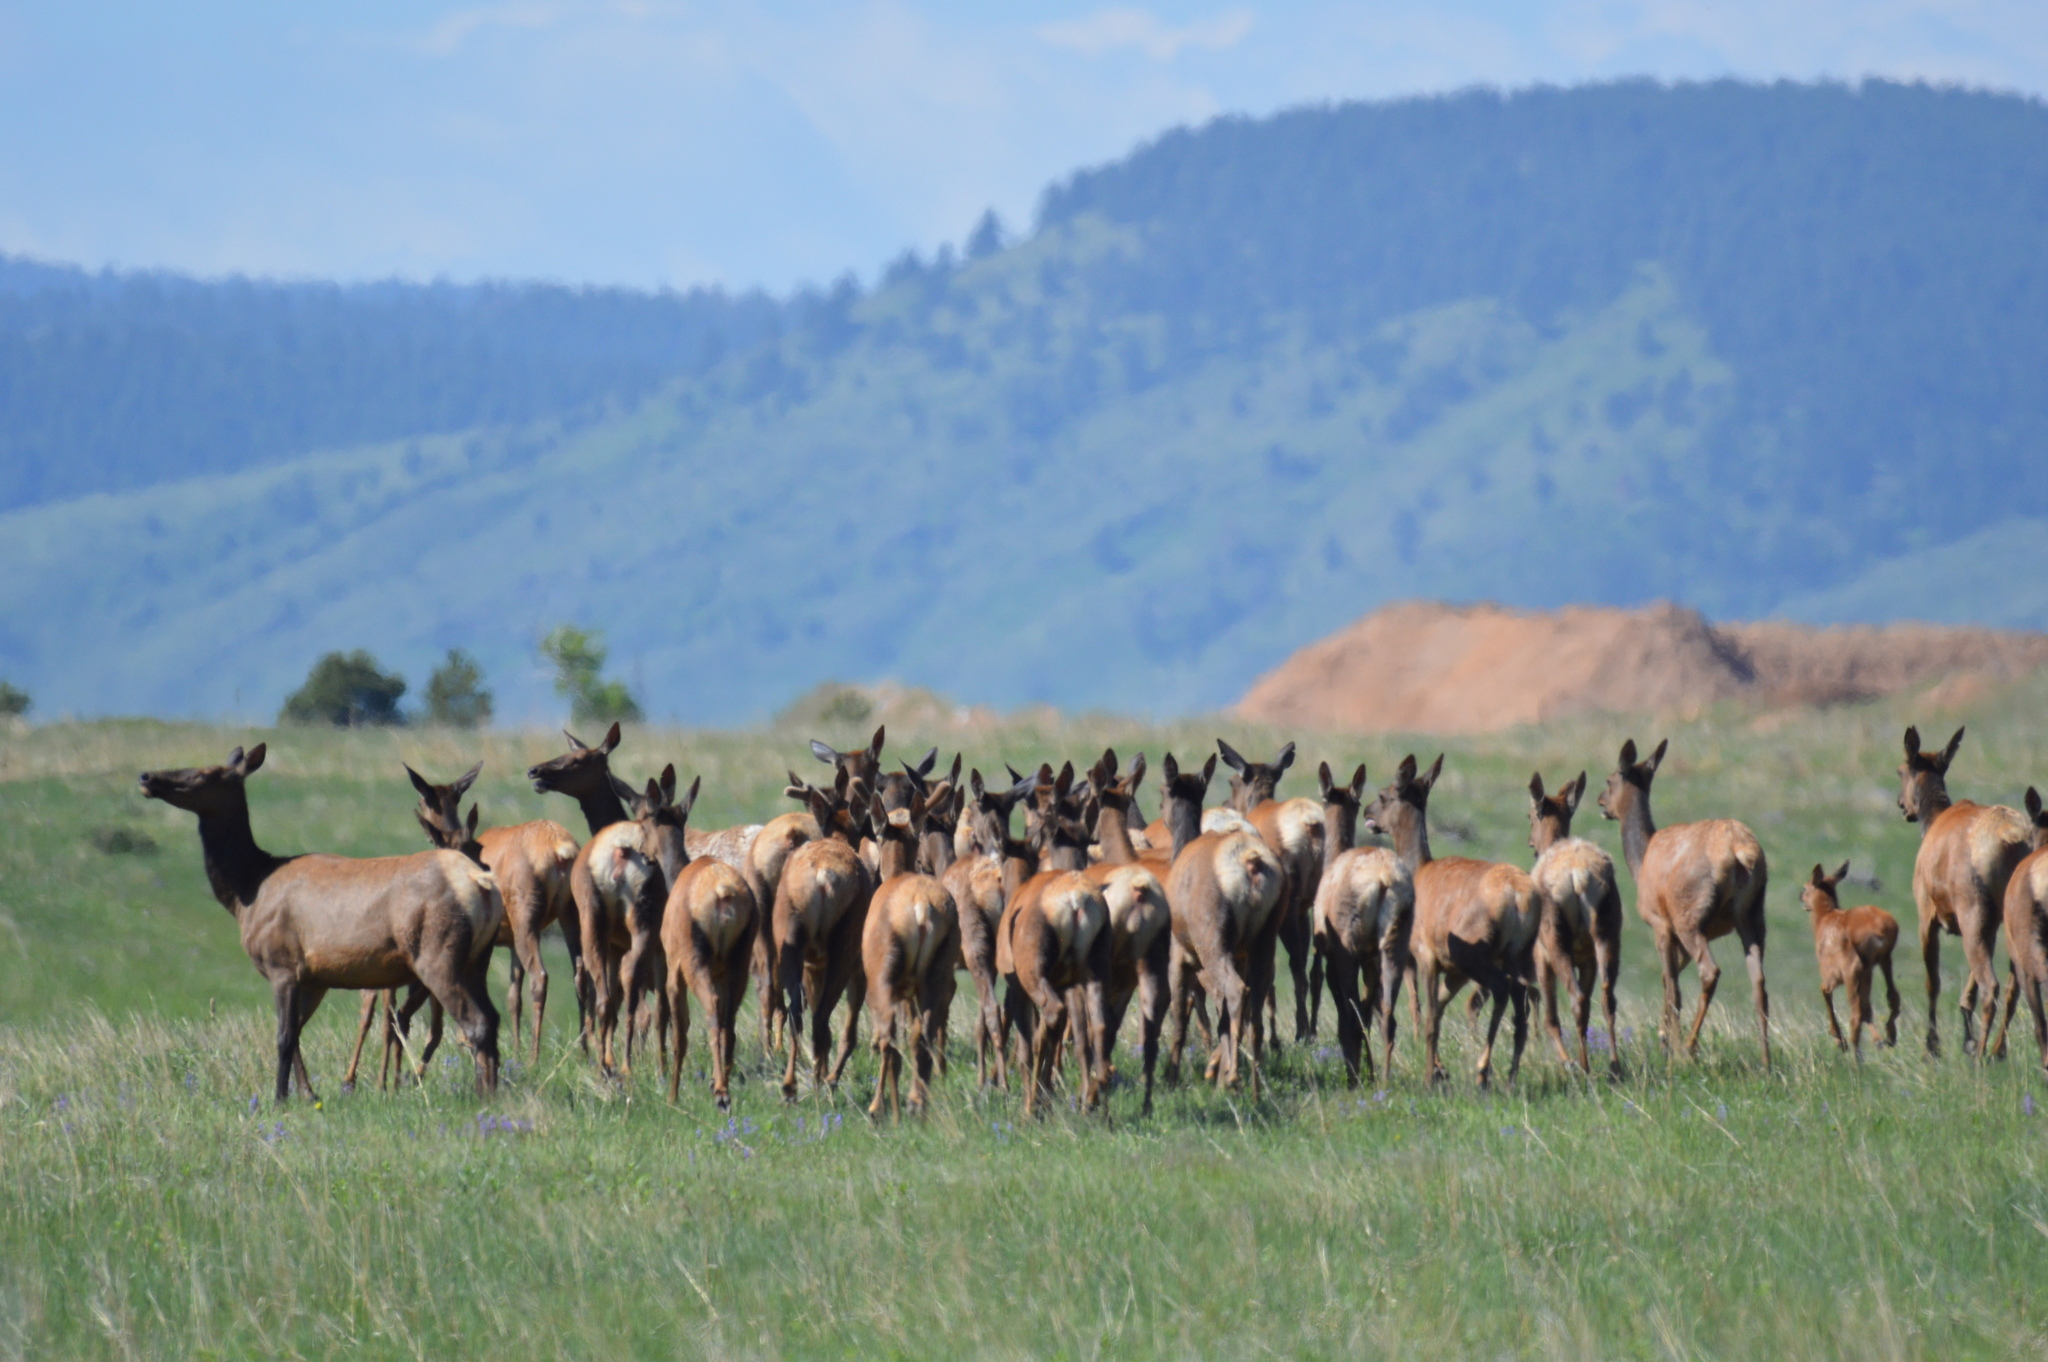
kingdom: Animalia
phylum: Chordata
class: Mammalia
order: Artiodactyla
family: Cervidae
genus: Cervus
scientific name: Cervus elaphus
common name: Red deer
